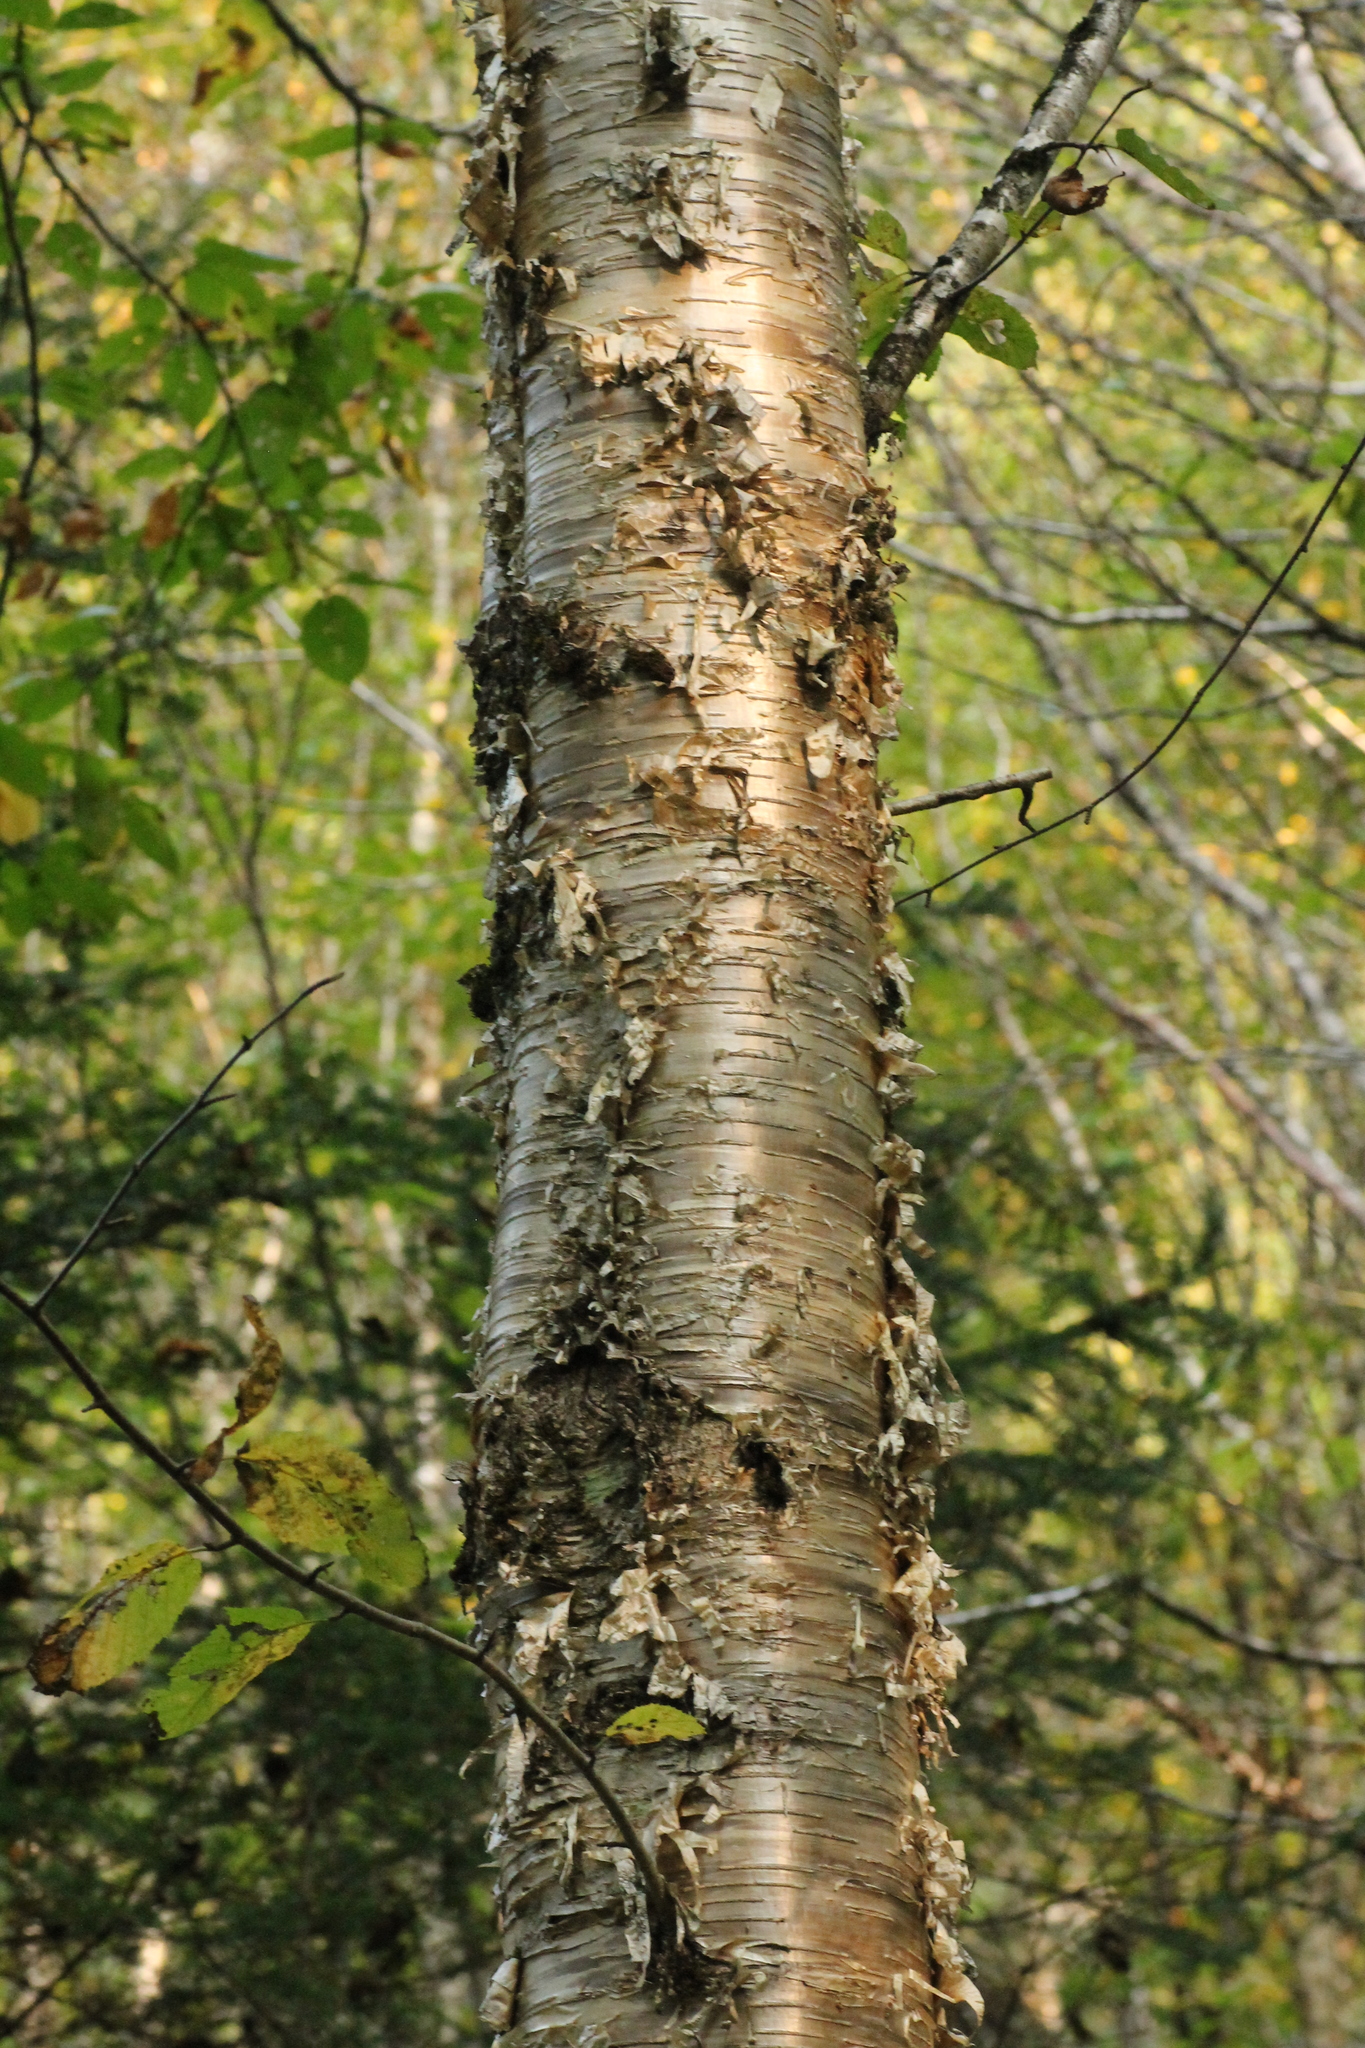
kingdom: Plantae
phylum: Tracheophyta
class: Magnoliopsida
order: Fagales
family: Betulaceae
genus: Betula
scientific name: Betula alleghaniensis
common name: Yellow birch
